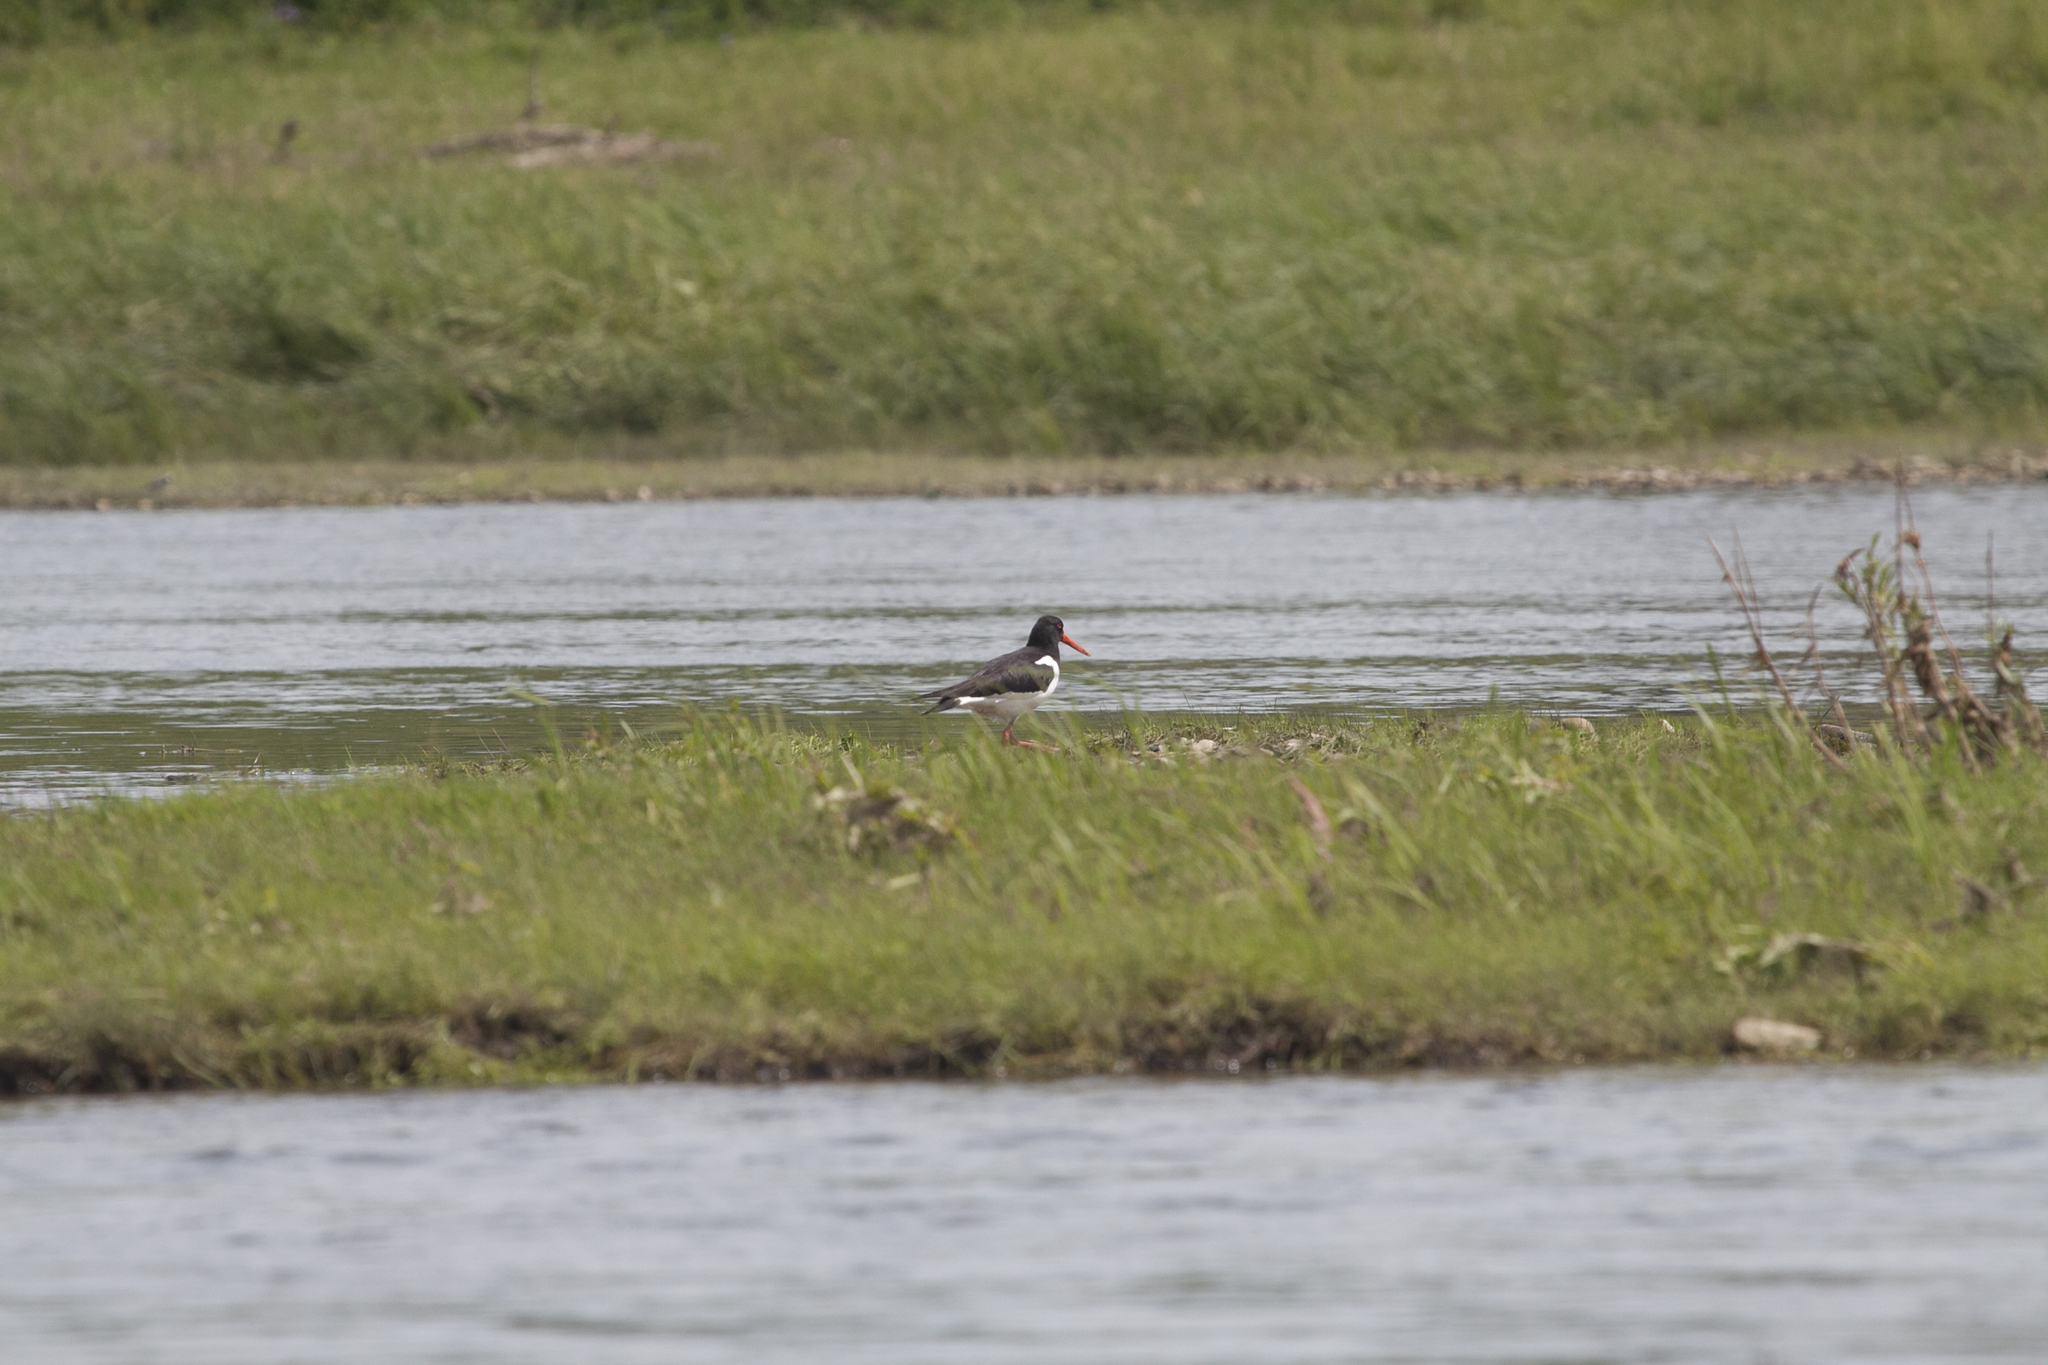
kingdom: Animalia
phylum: Chordata
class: Aves
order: Charadriiformes
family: Haematopodidae
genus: Haematopus
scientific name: Haematopus ostralegus
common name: Eurasian oystercatcher
